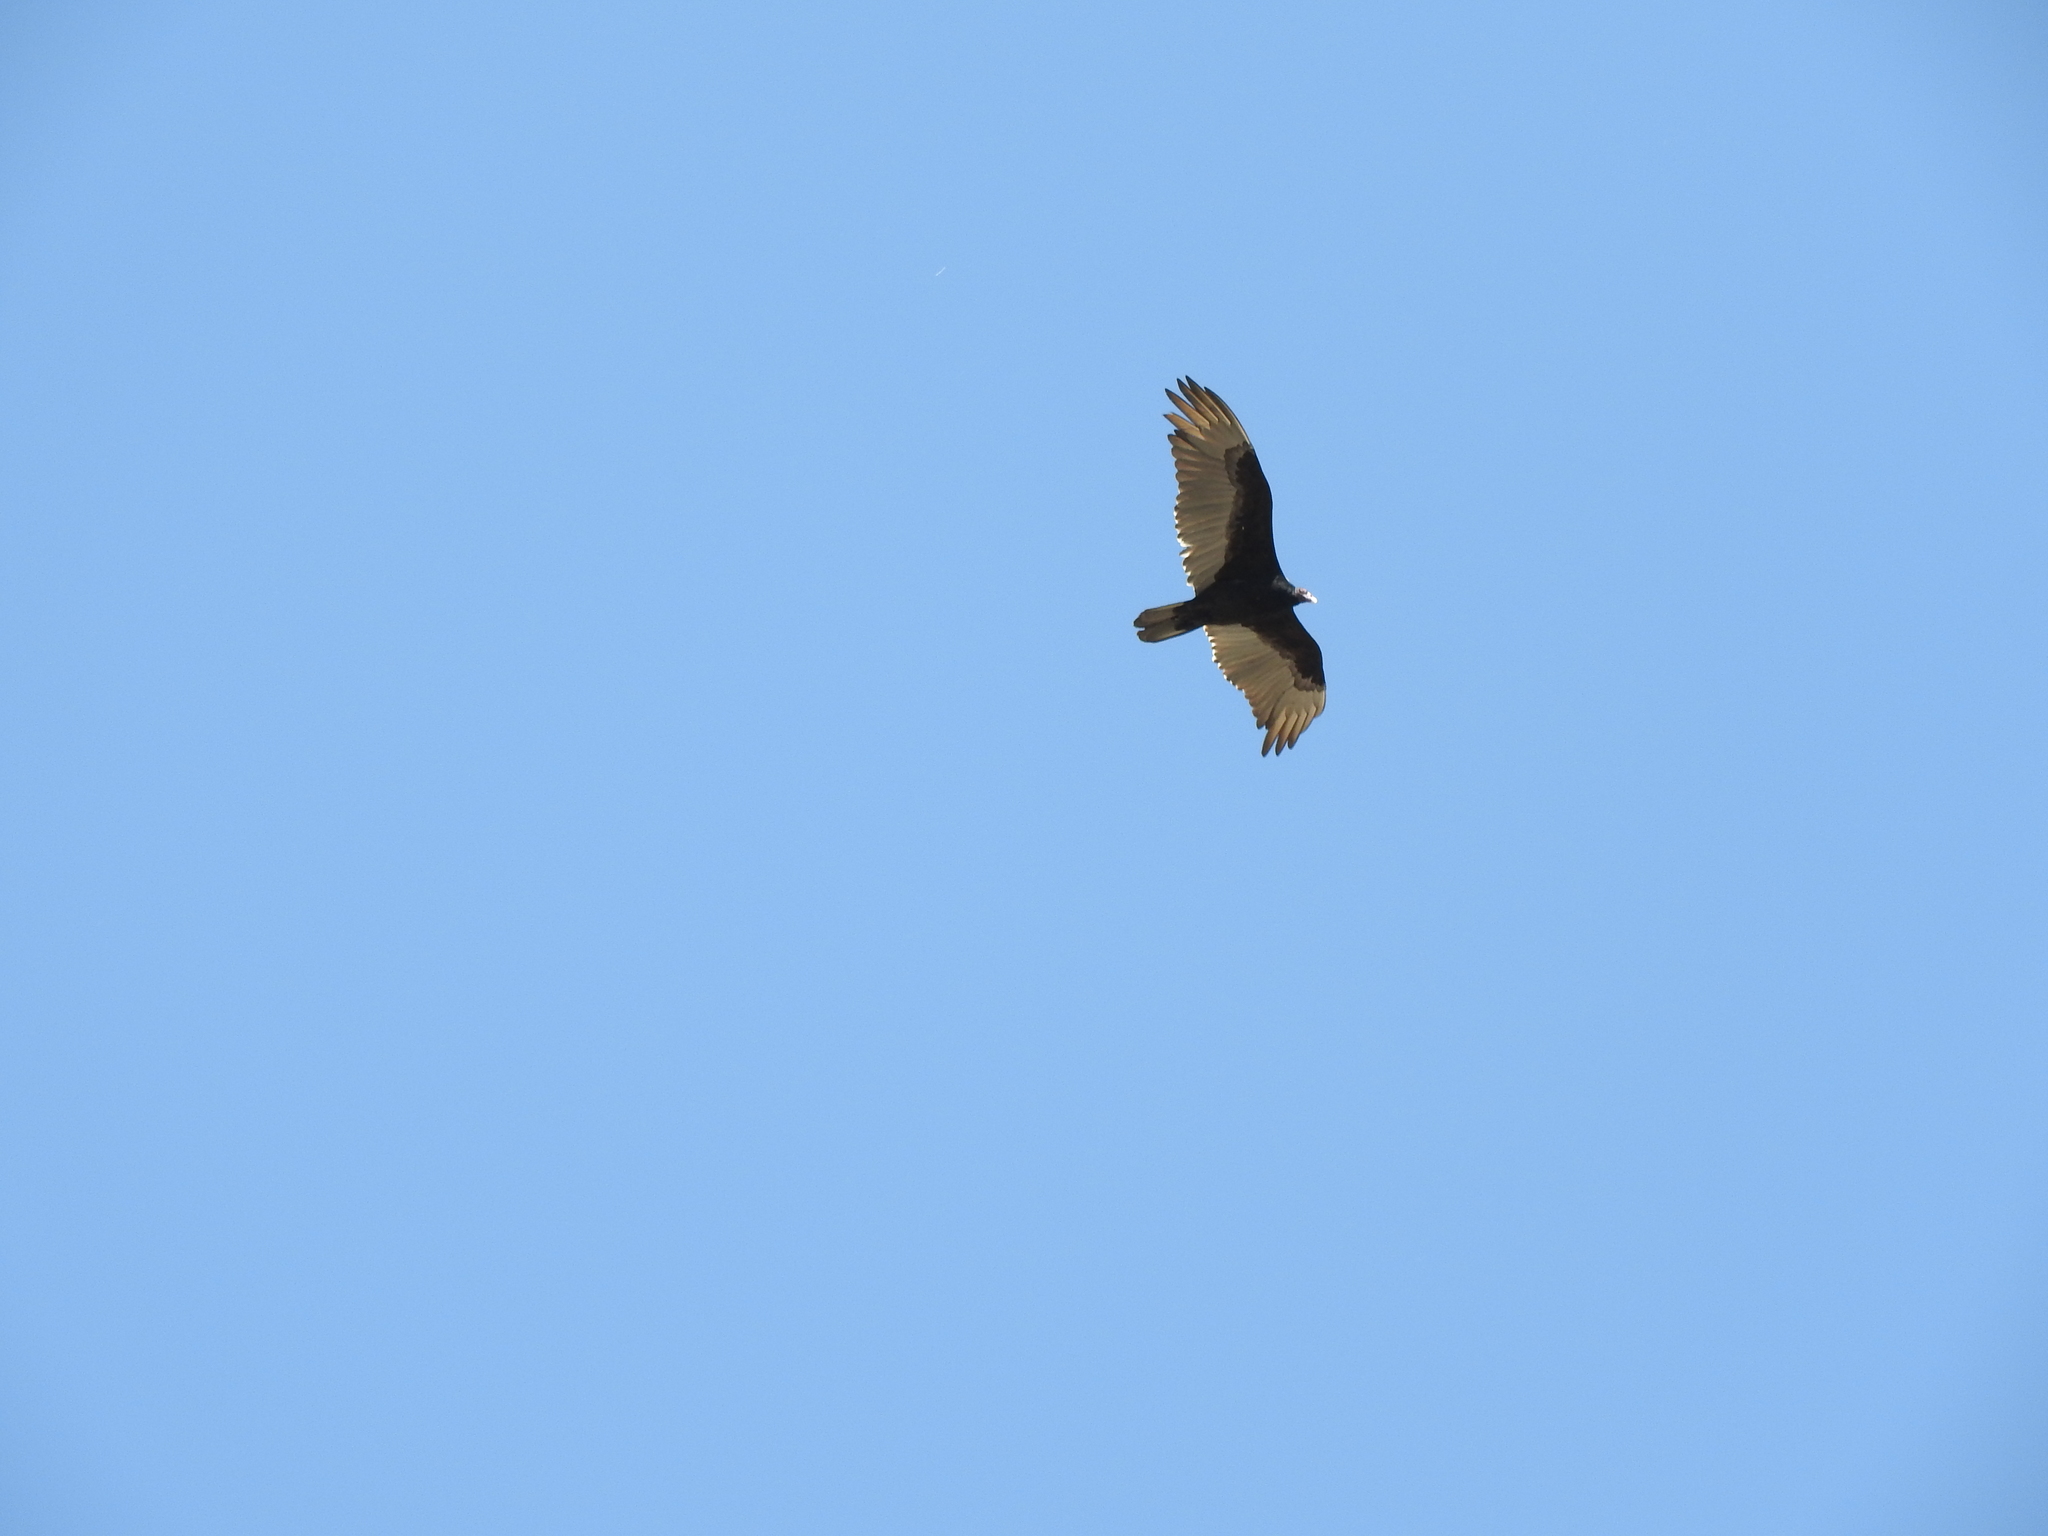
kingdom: Animalia
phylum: Chordata
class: Aves
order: Accipitriformes
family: Cathartidae
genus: Cathartes
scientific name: Cathartes aura
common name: Turkey vulture
